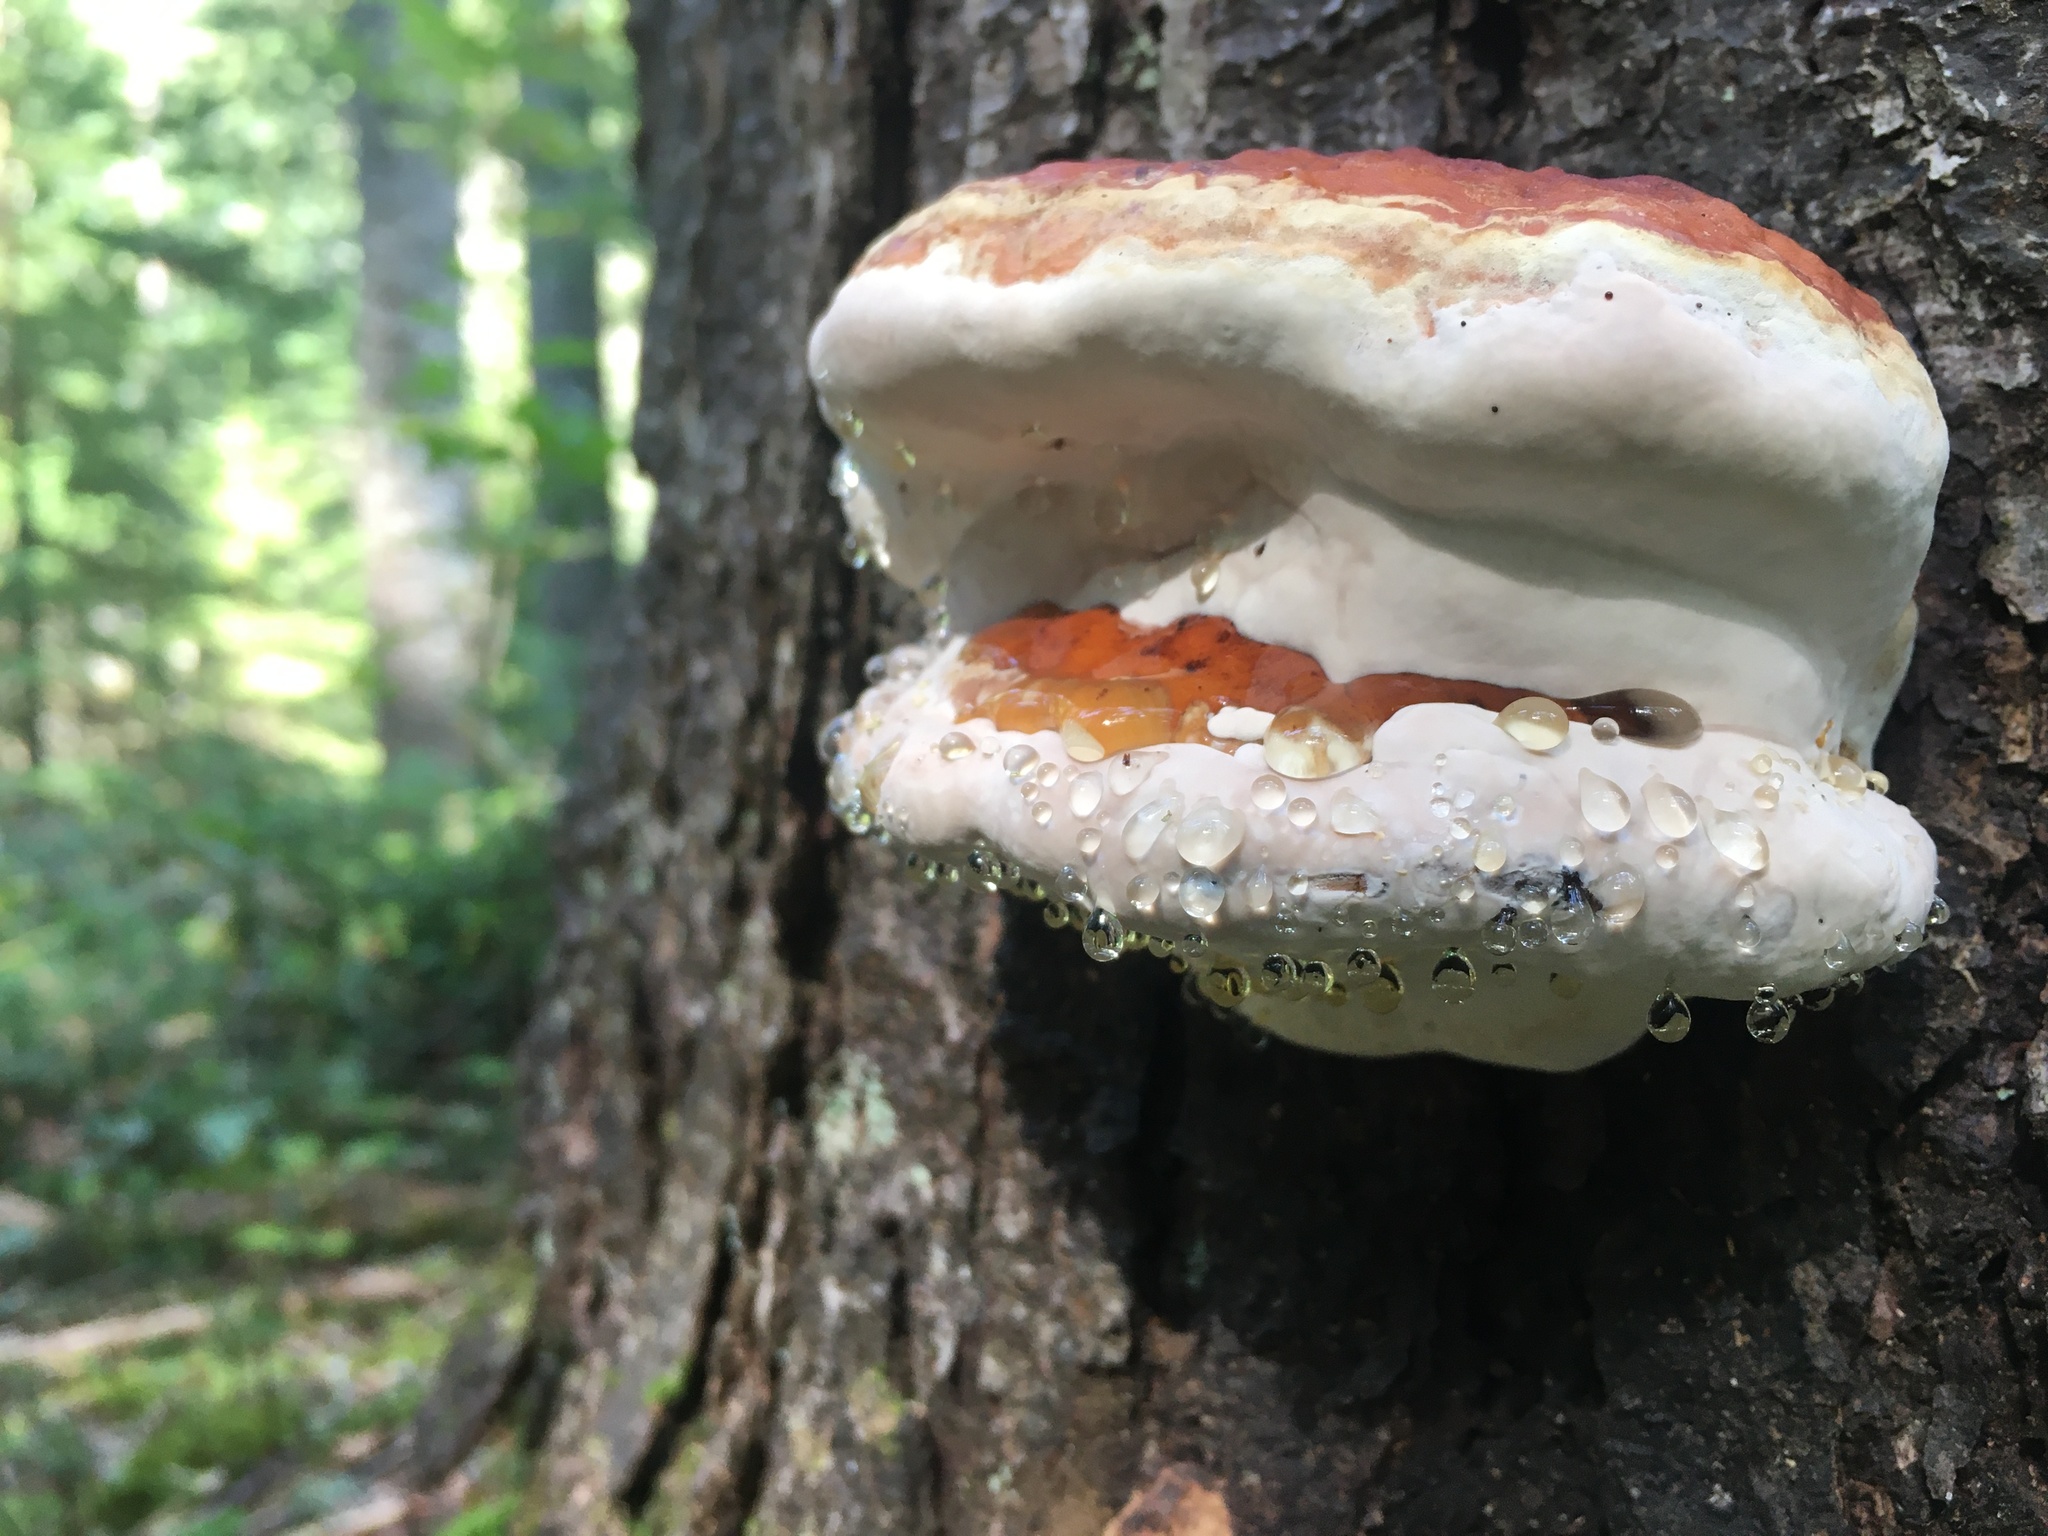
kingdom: Fungi
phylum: Basidiomycota
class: Agaricomycetes
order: Polyporales
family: Fomitopsidaceae
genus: Fomitopsis
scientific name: Fomitopsis mounceae
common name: Northern red belt
